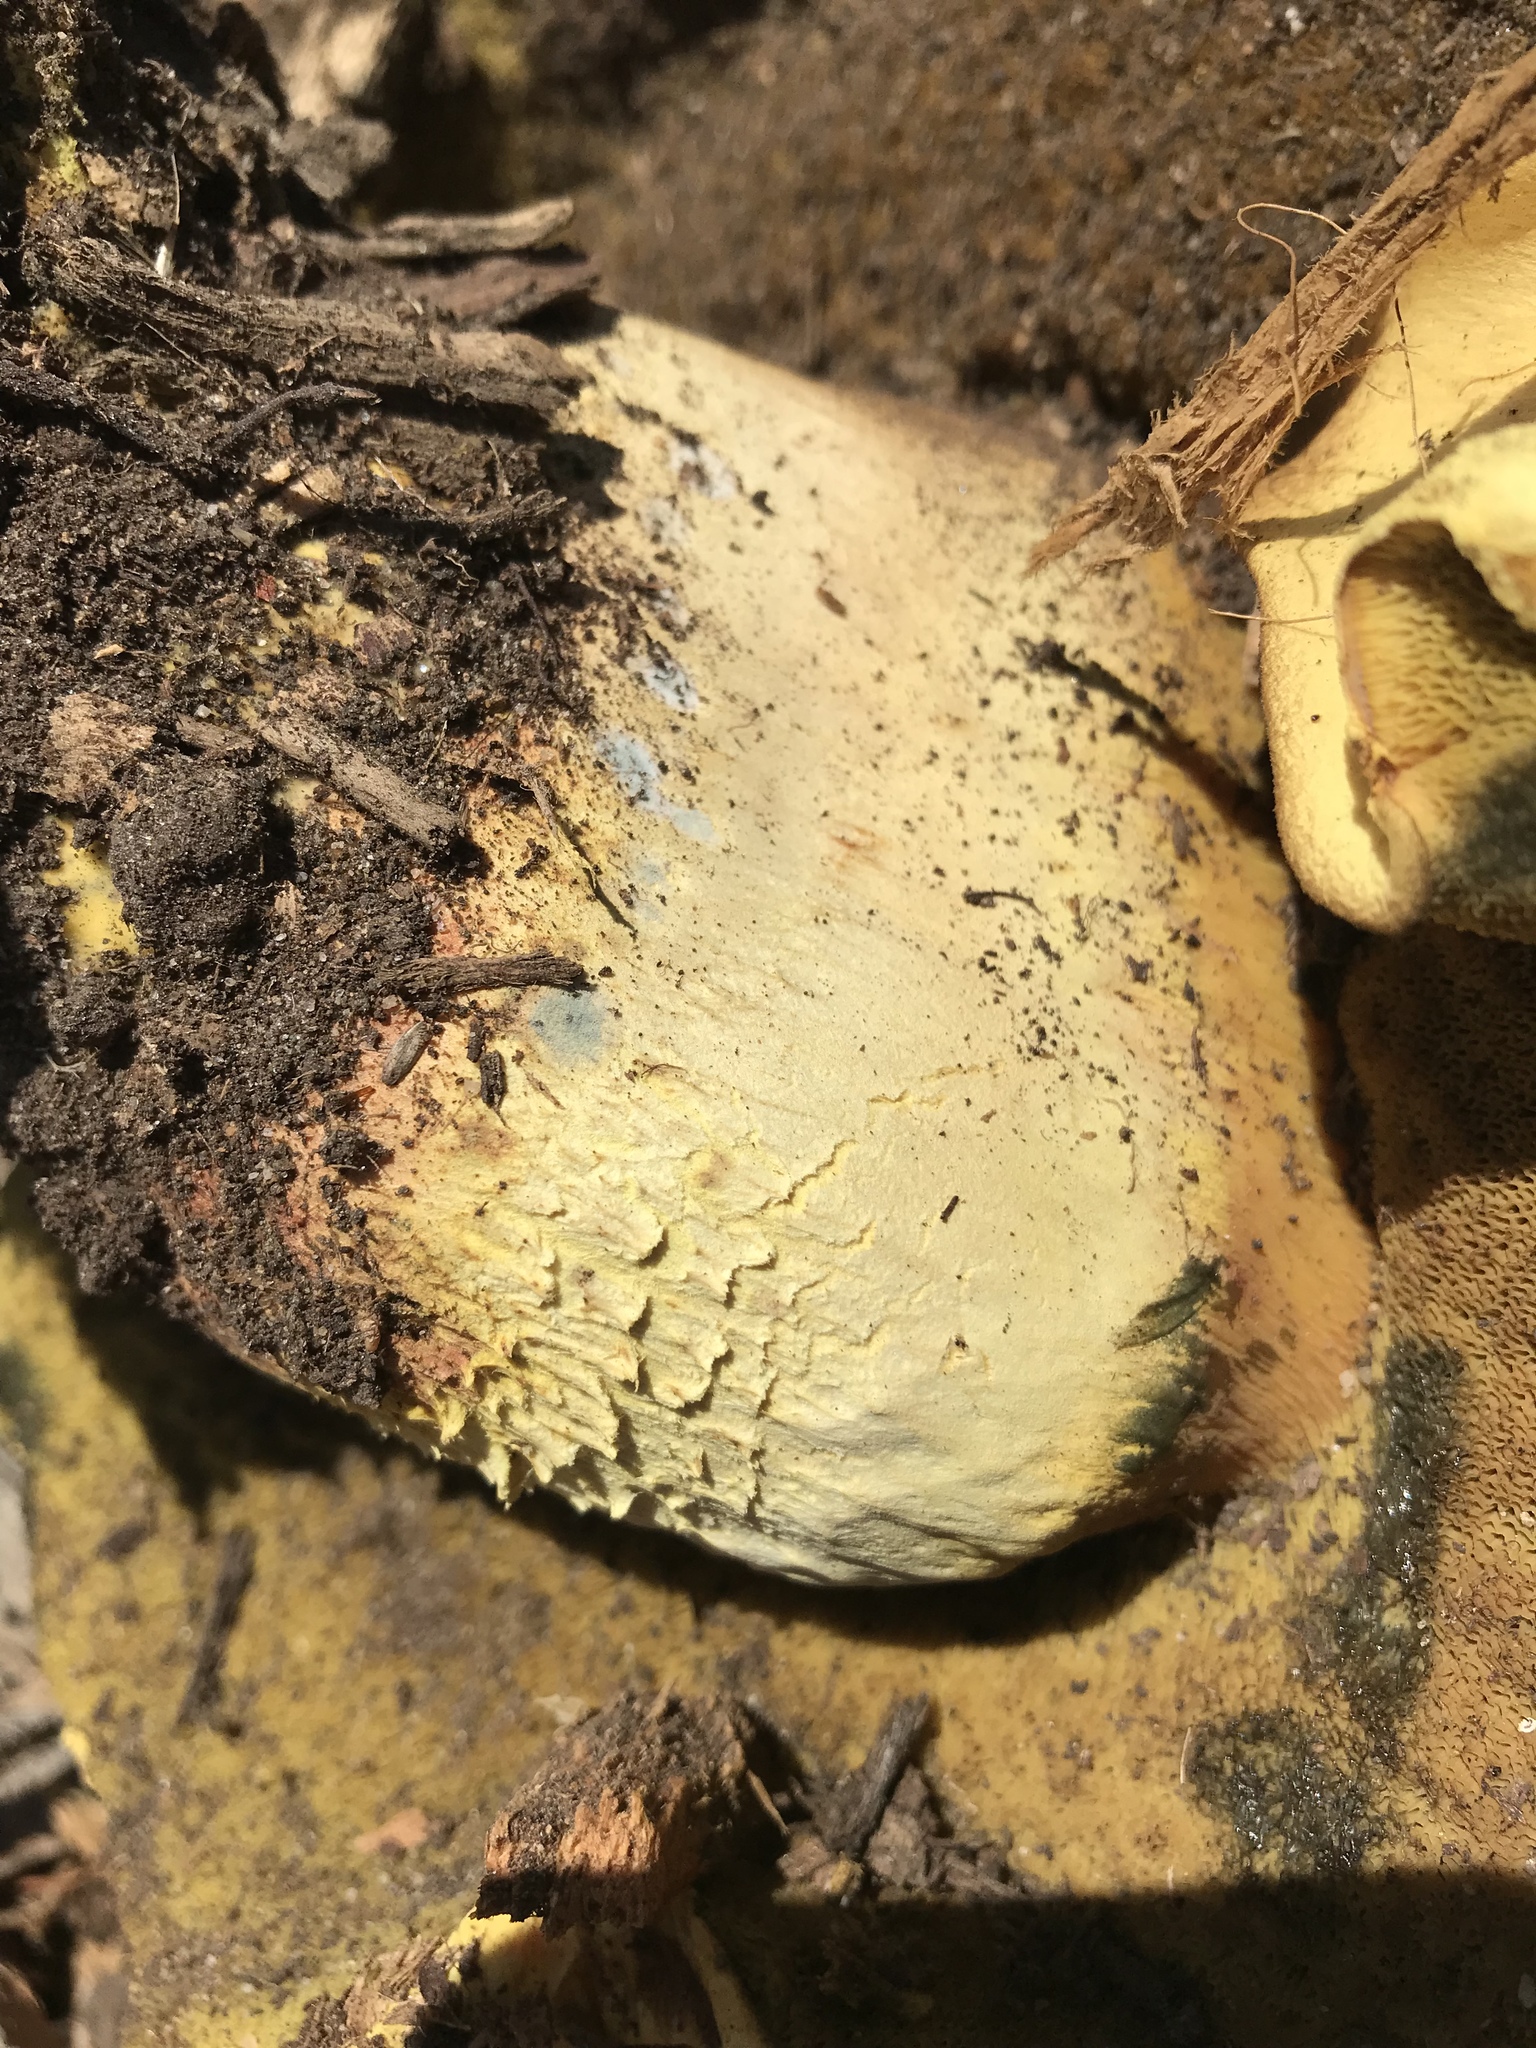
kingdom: Fungi
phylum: Basidiomycota
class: Agaricomycetes
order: Boletales
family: Boletaceae
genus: Chalciporus
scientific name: Chalciporus sphaerocephalus
